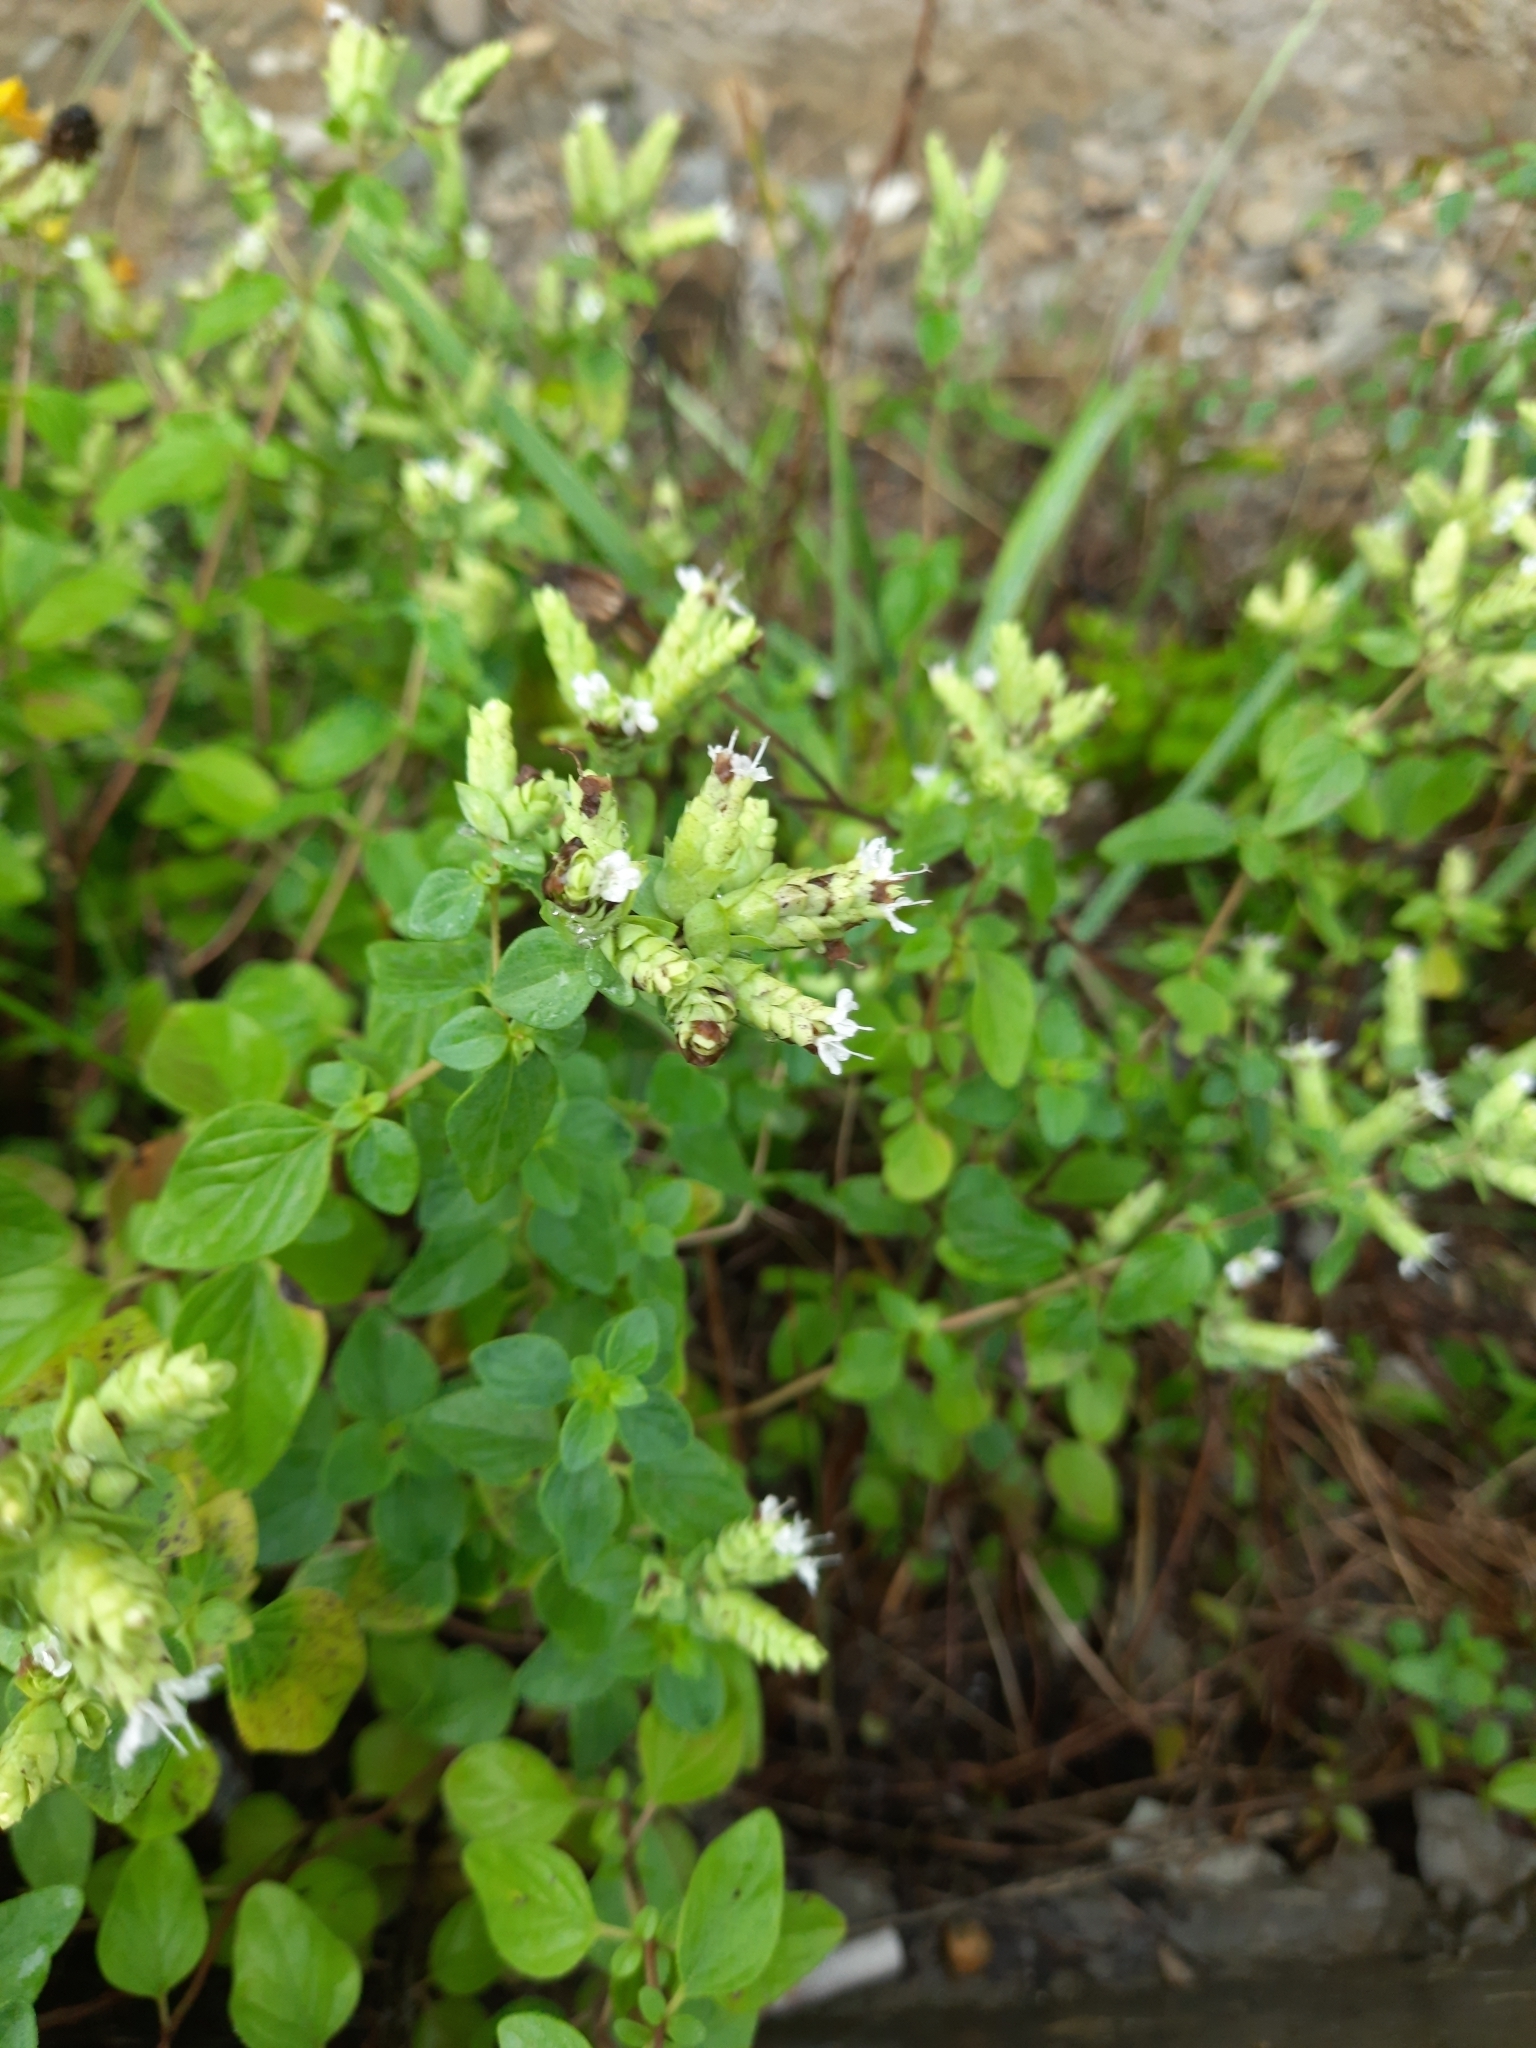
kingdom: Plantae
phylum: Tracheophyta
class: Magnoliopsida
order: Lamiales
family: Lamiaceae
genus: Origanum
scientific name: Origanum vulgare
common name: Wild marjoram
